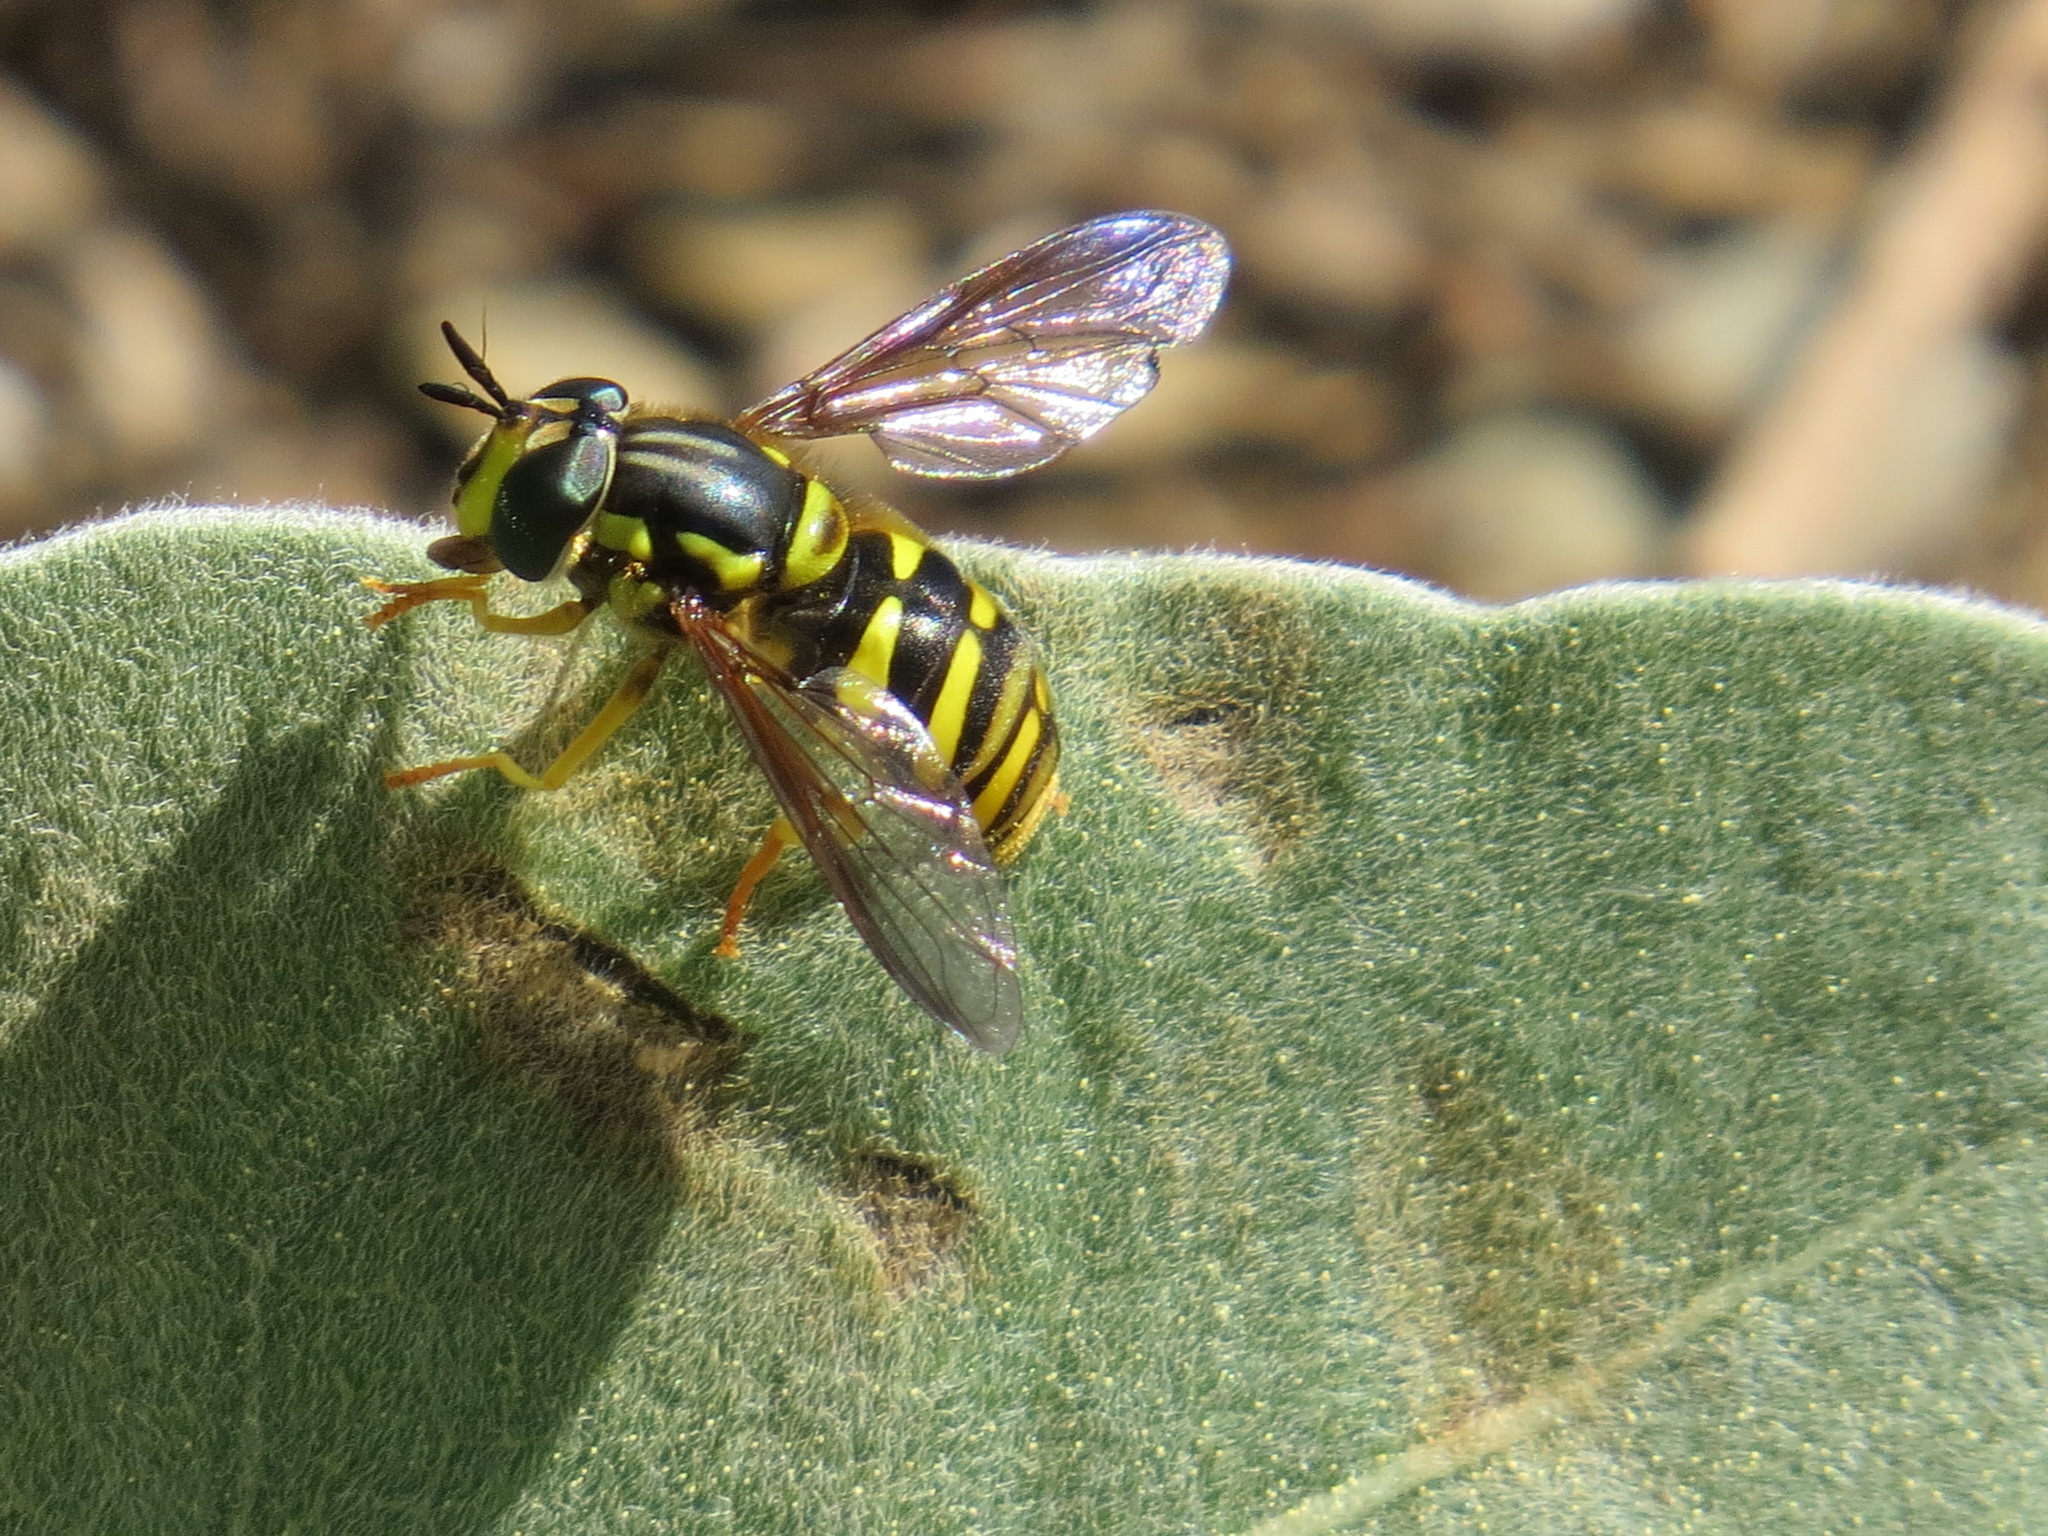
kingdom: Animalia
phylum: Arthropoda
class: Insecta
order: Diptera
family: Syrphidae
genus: Chrysotoxum
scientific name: Chrysotoxum
